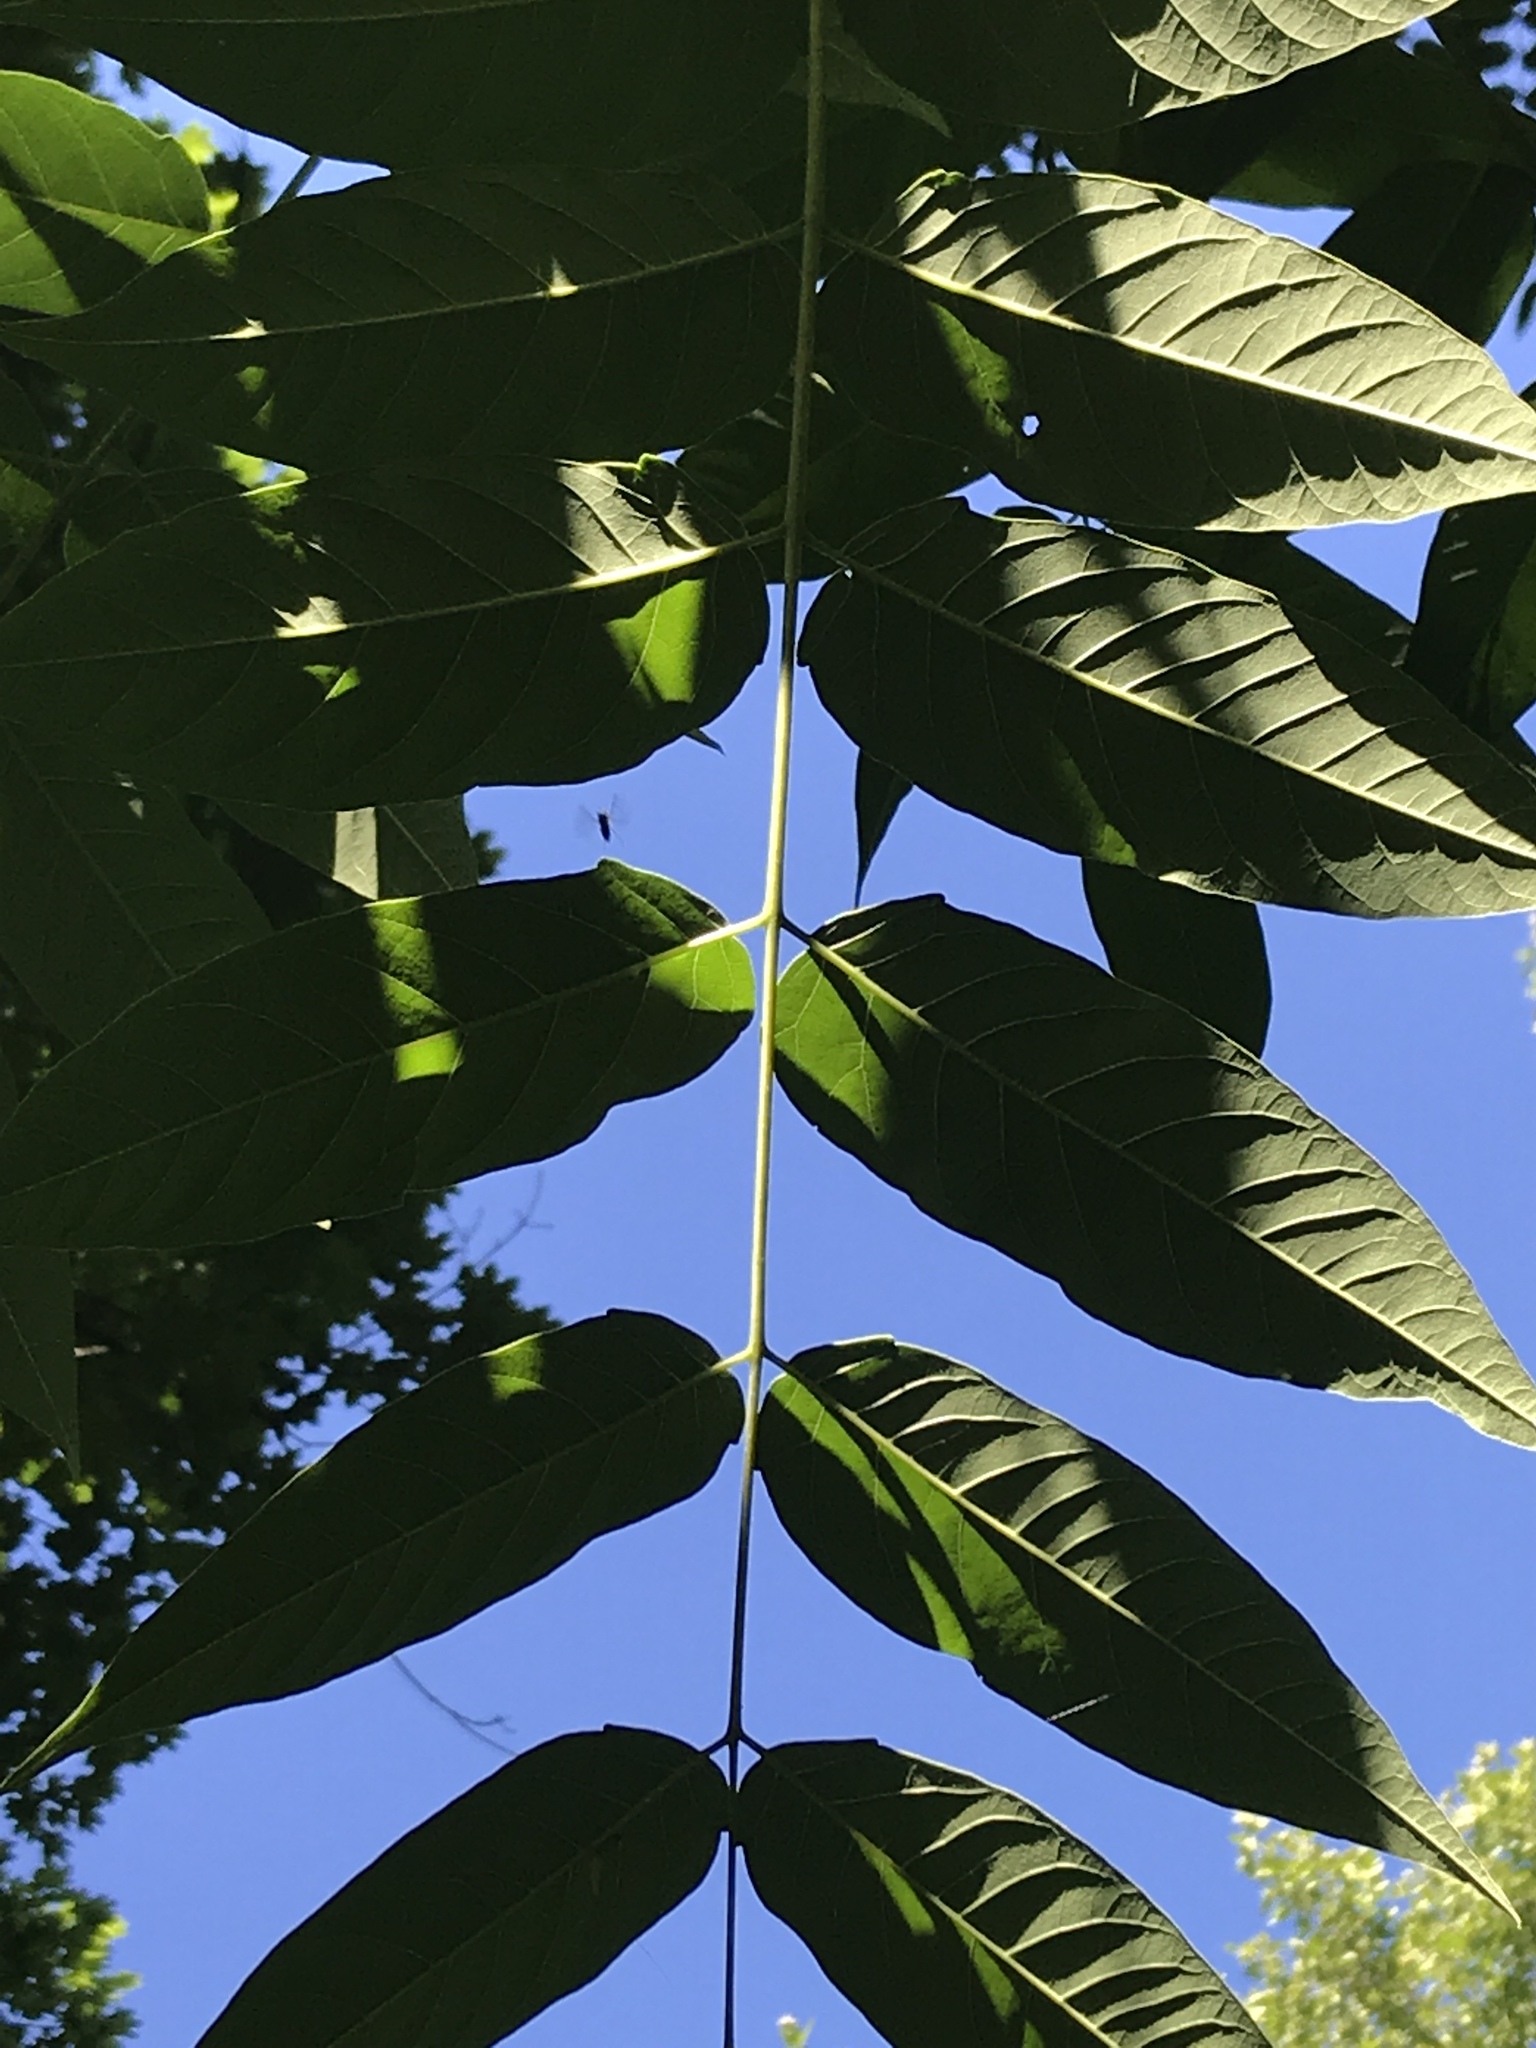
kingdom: Plantae
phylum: Tracheophyta
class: Magnoliopsida
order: Sapindales
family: Simaroubaceae
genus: Ailanthus
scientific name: Ailanthus altissima
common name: Tree-of-heaven
